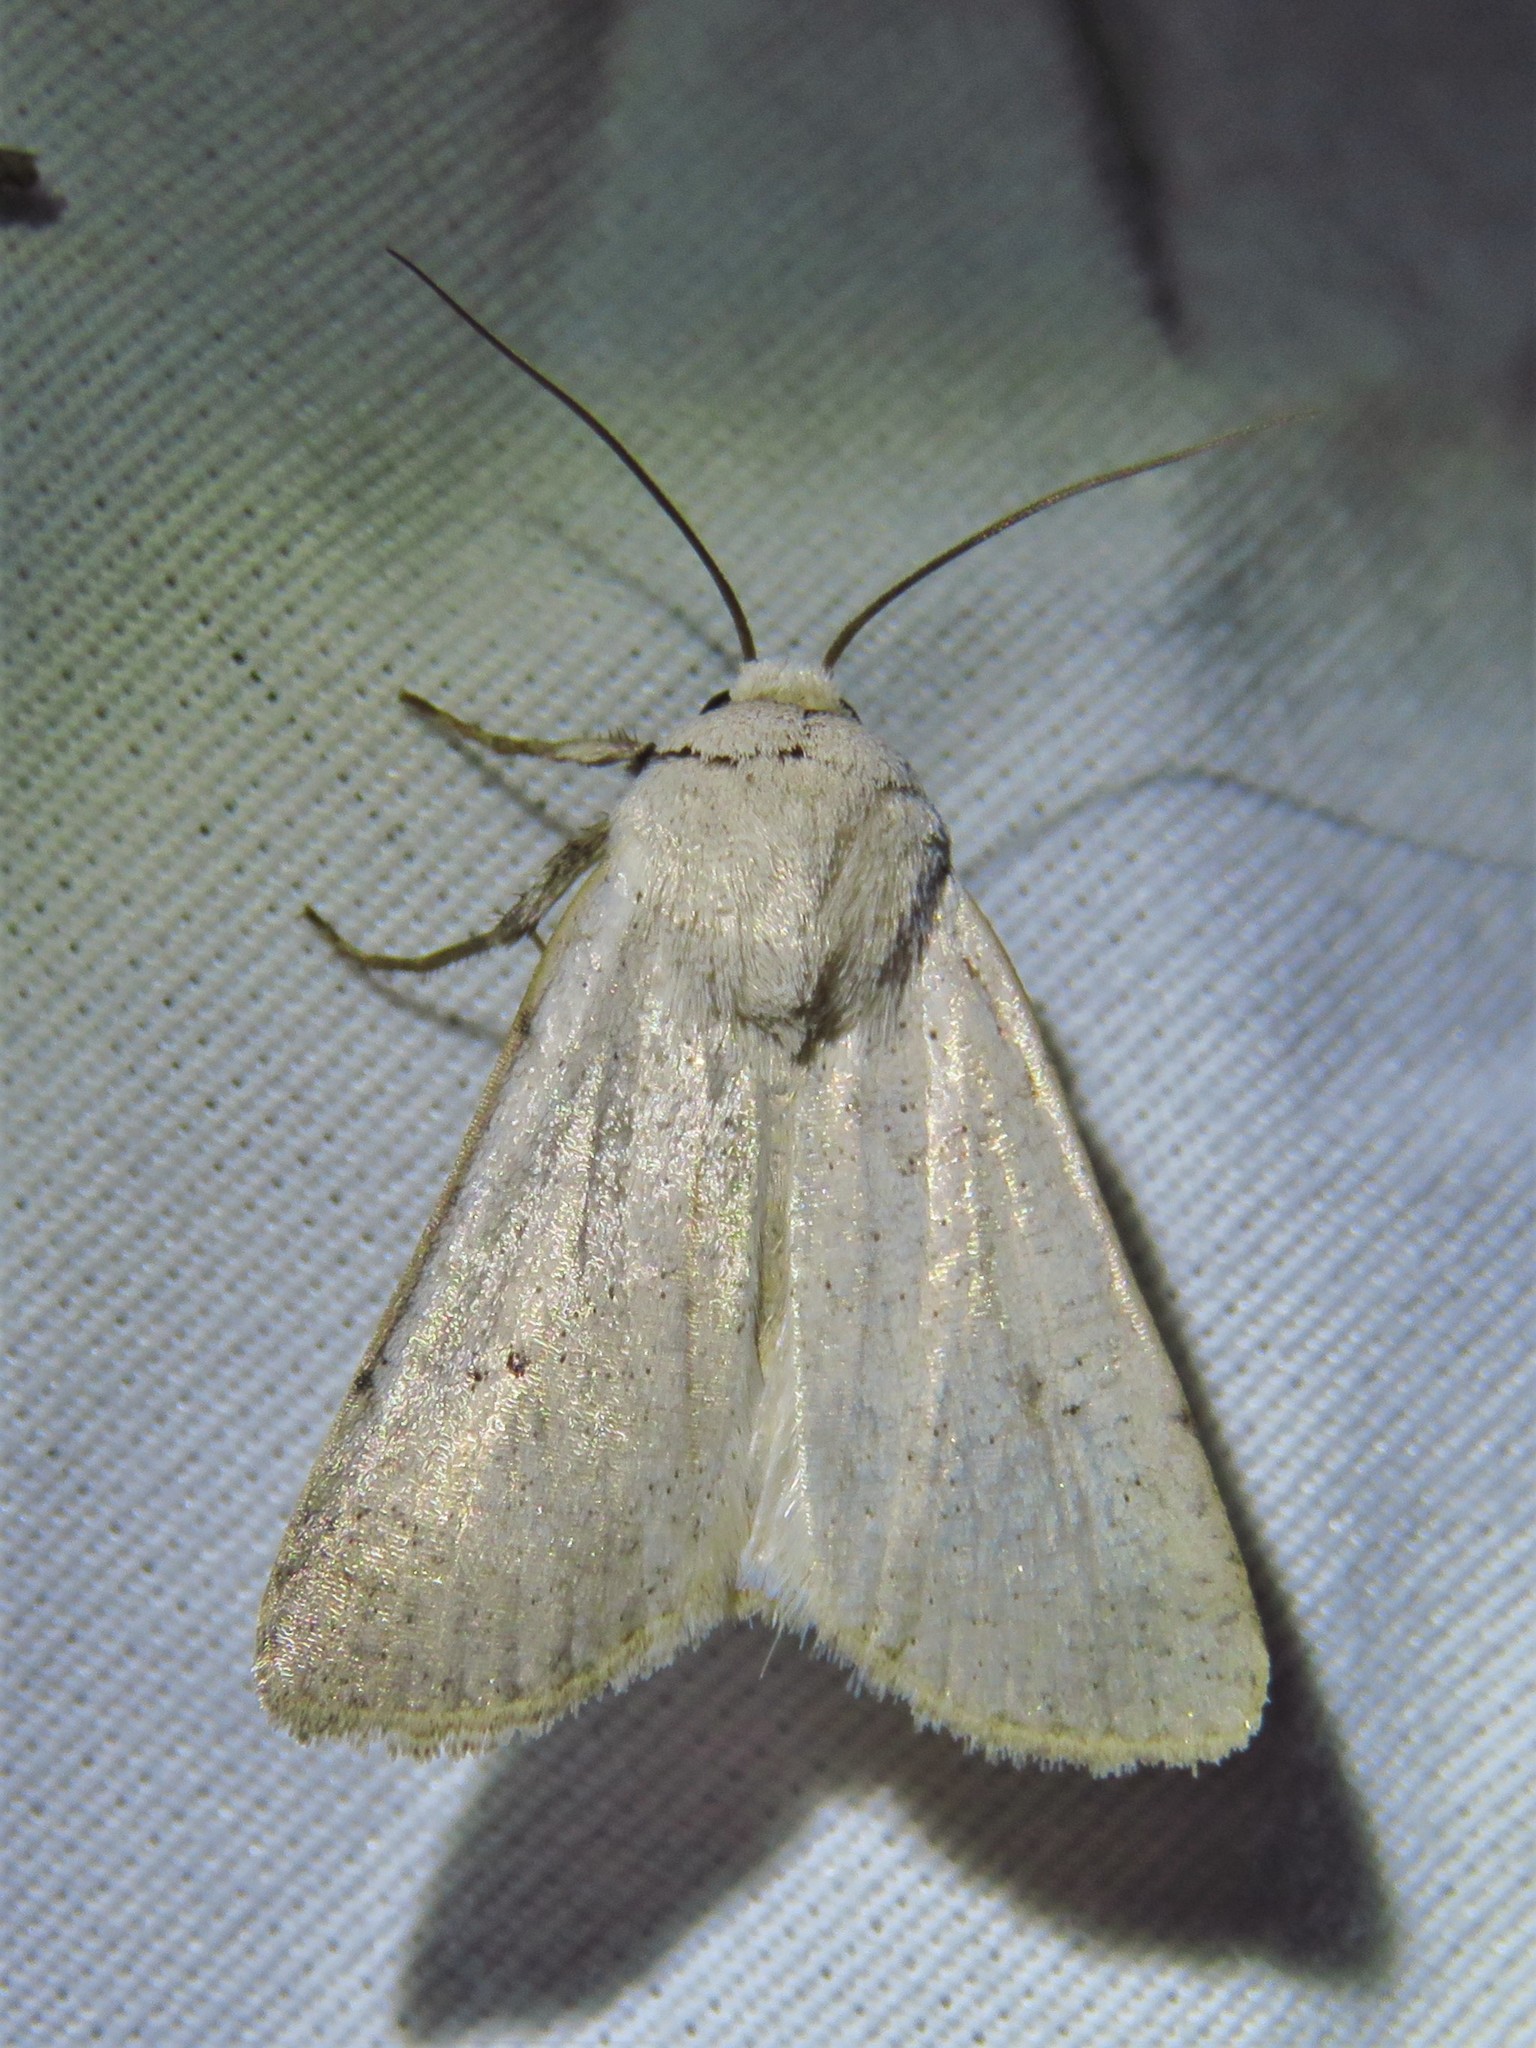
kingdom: Animalia
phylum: Arthropoda
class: Insecta
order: Lepidoptera
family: Noctuidae
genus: Anicla
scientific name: Anicla digna
